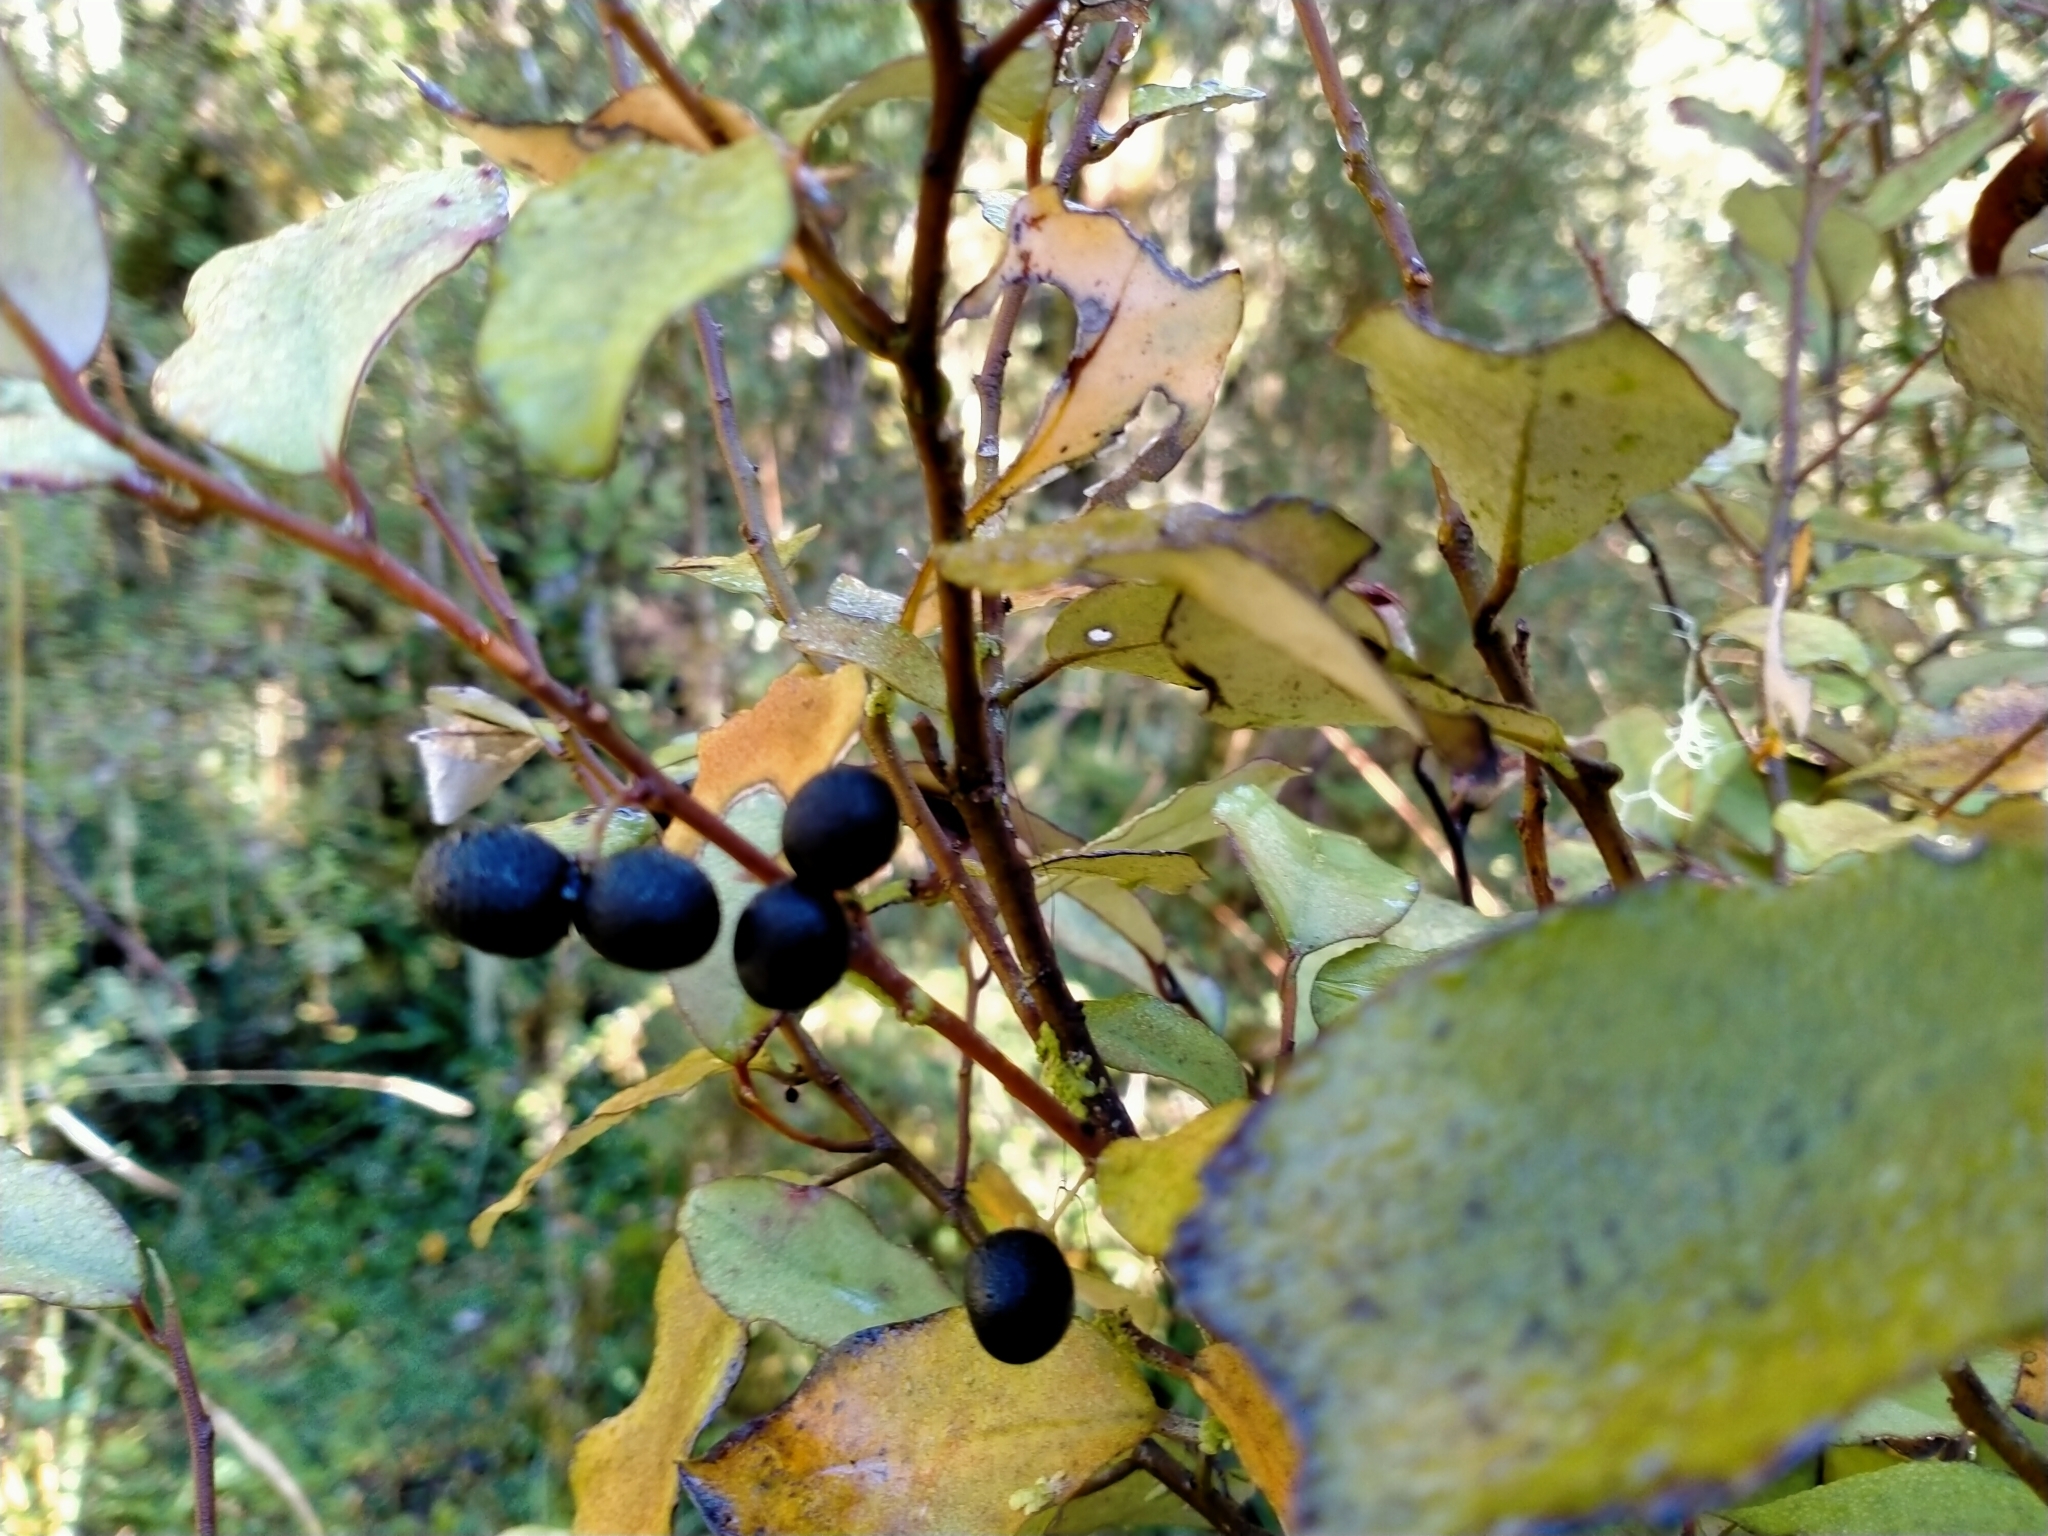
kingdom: Plantae
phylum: Tracheophyta
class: Magnoliopsida
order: Canellales
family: Winteraceae
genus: Pseudowintera
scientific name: Pseudowintera colorata
